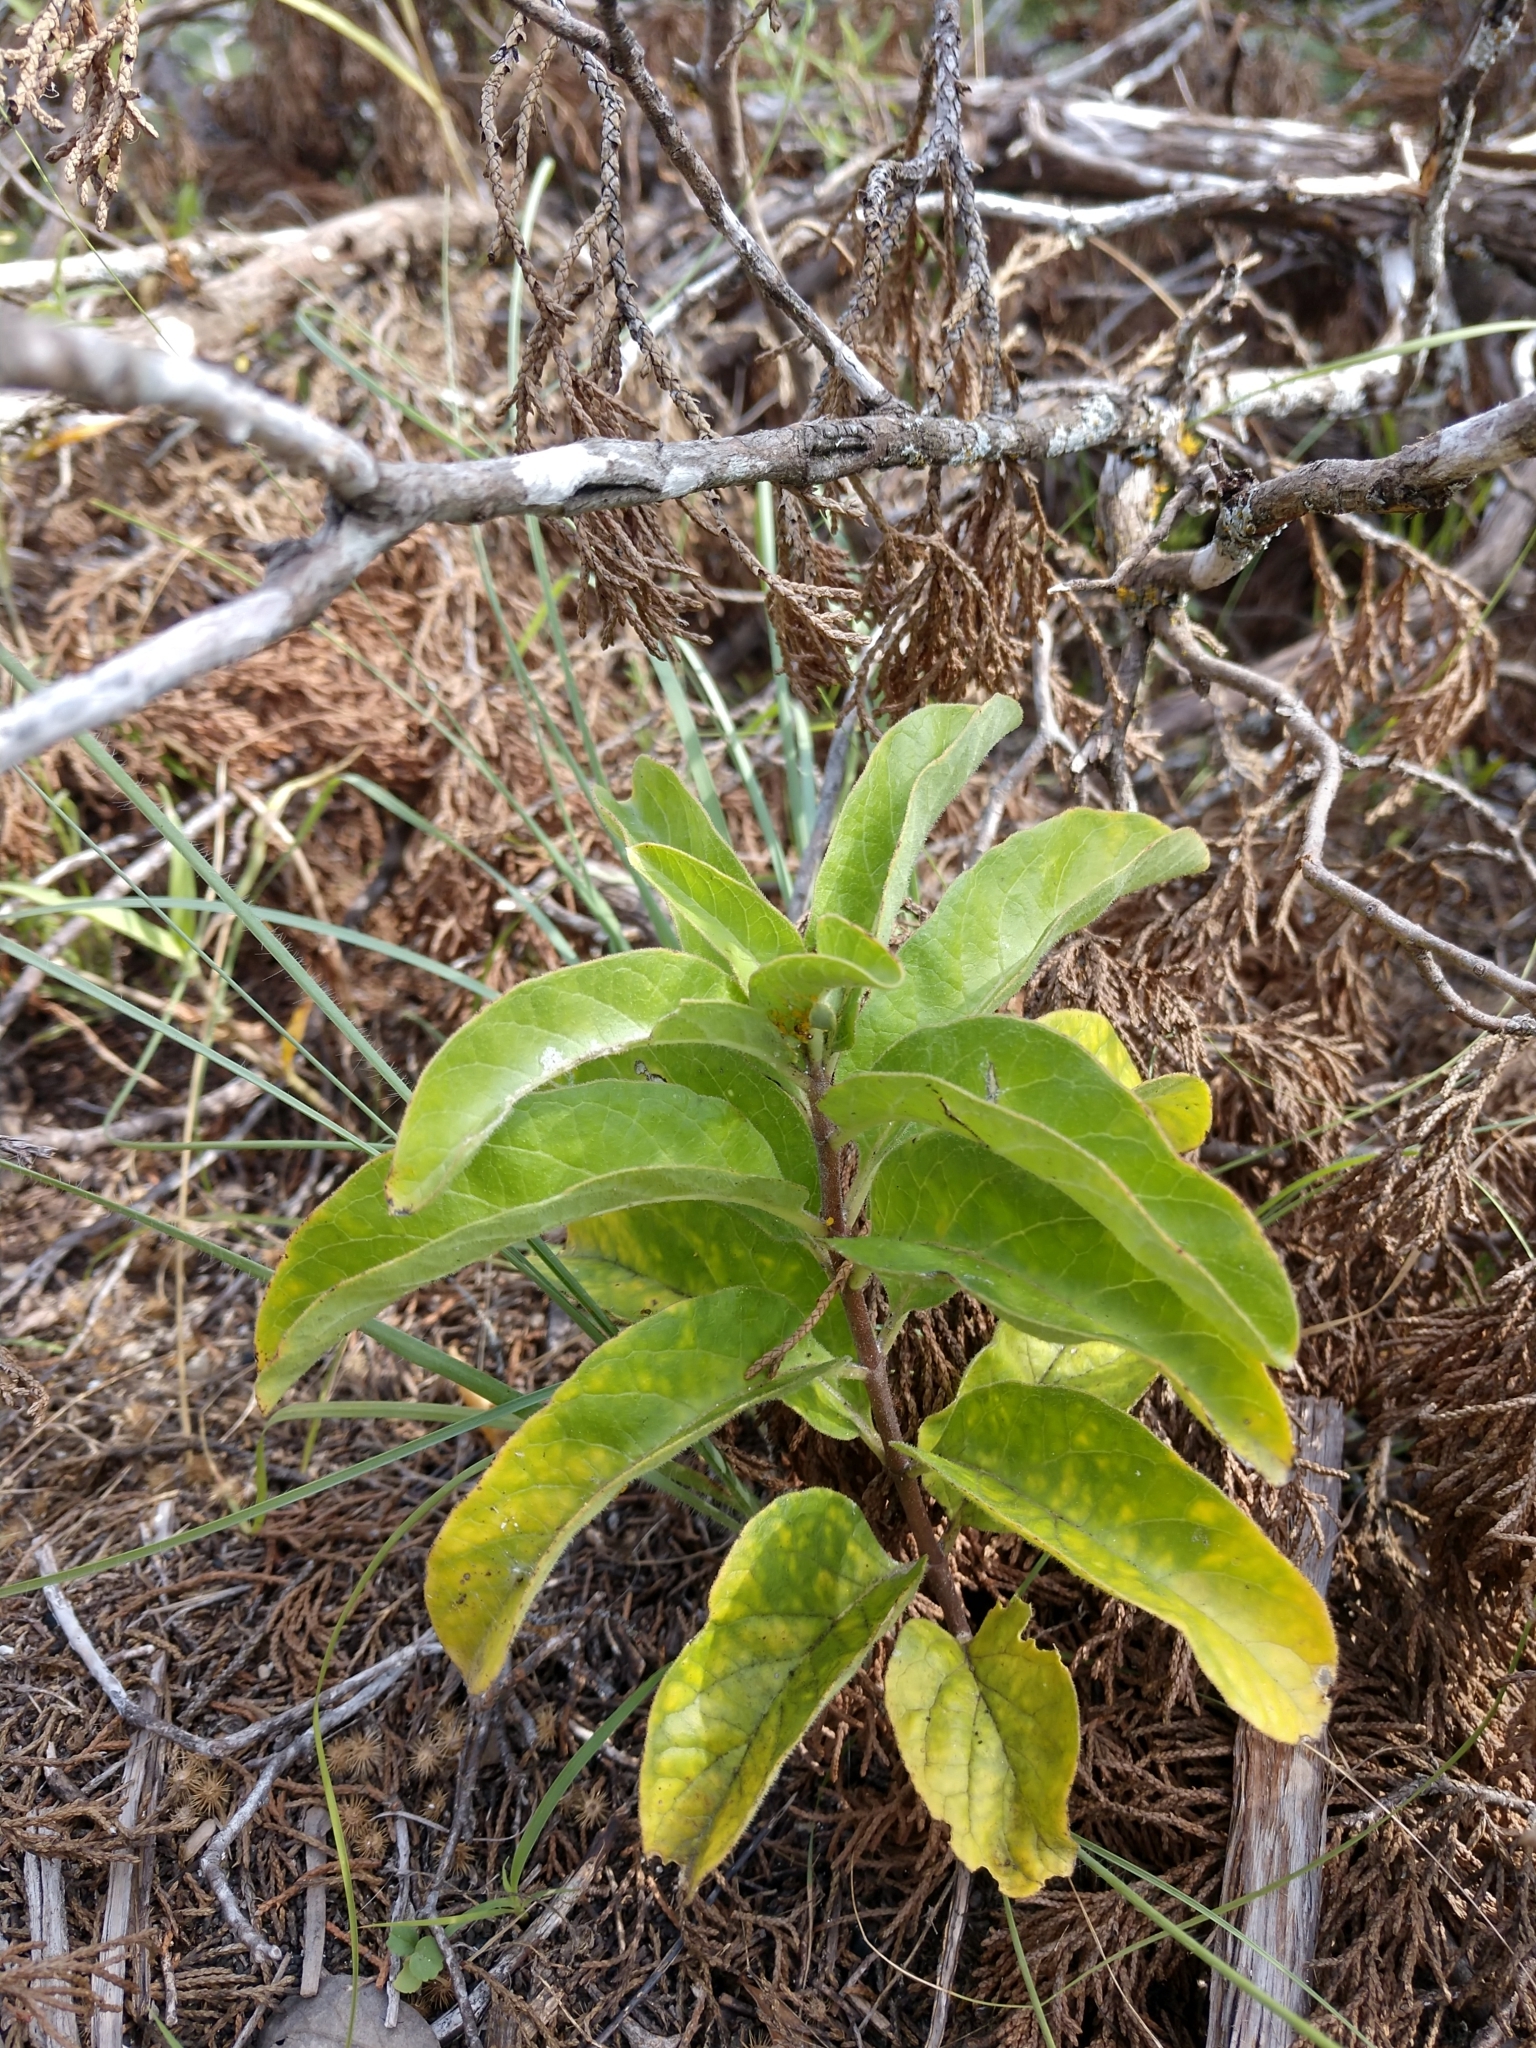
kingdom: Plantae
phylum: Tracheophyta
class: Magnoliopsida
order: Gentianales
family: Apocynaceae
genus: Asclepias
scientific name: Asclepias oenotheroides
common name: Zizotes milkweed
